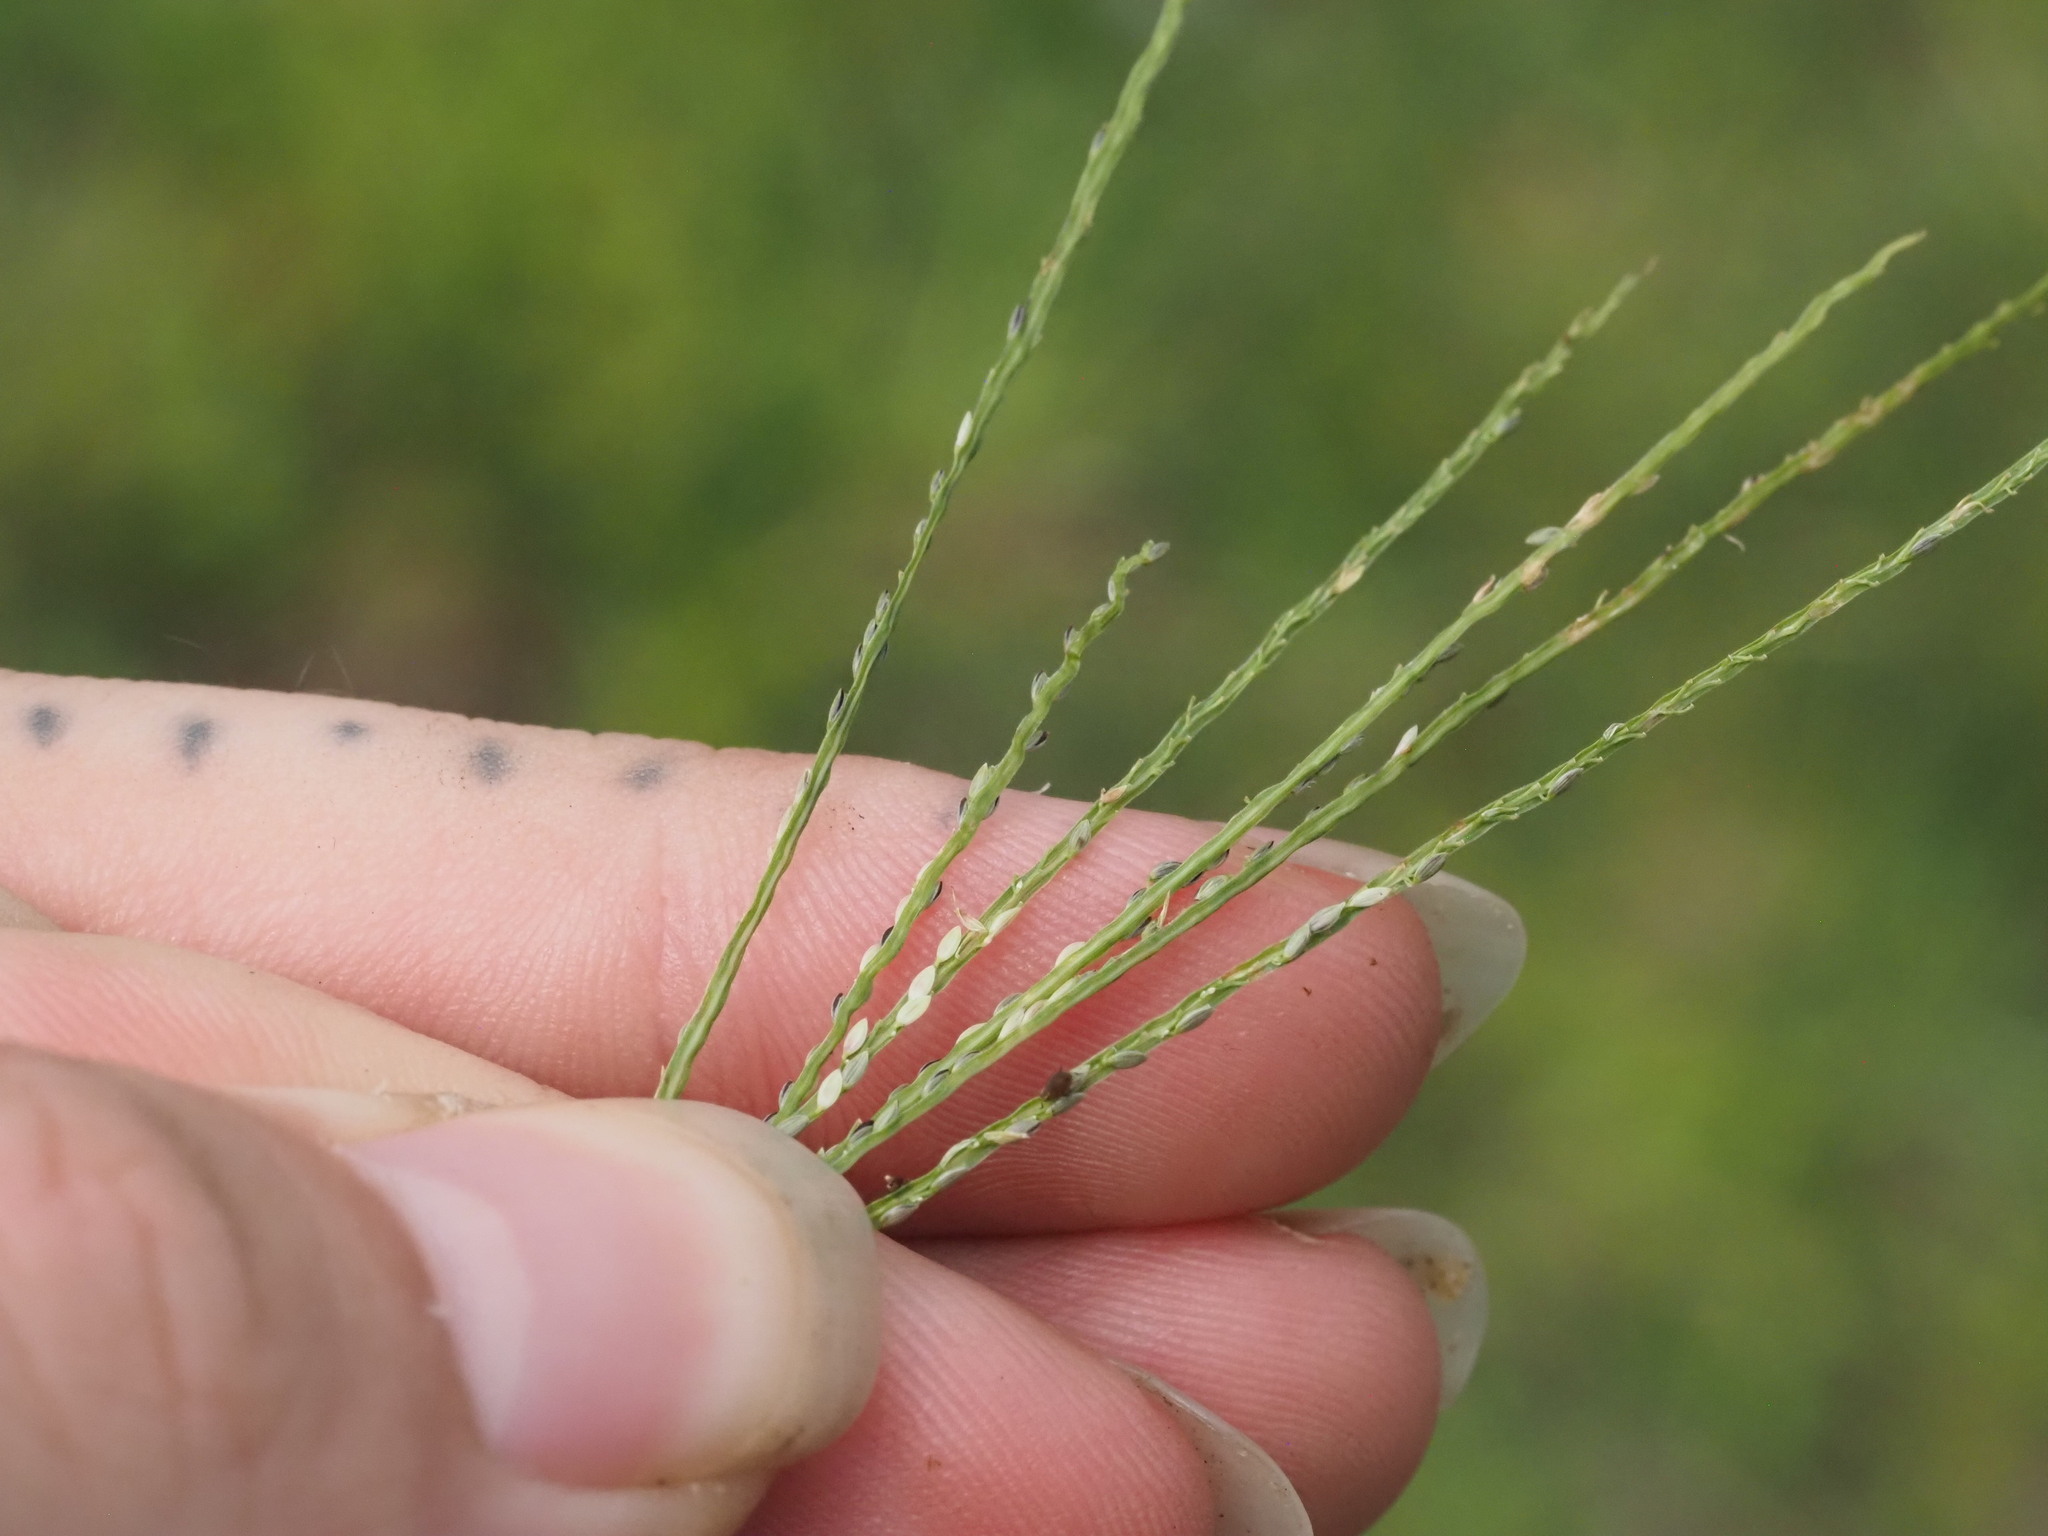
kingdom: Plantae
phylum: Tracheophyta
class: Liliopsida
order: Poales
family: Poaceae
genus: Digitaria
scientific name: Digitaria violascens
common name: Violet crabgrass
